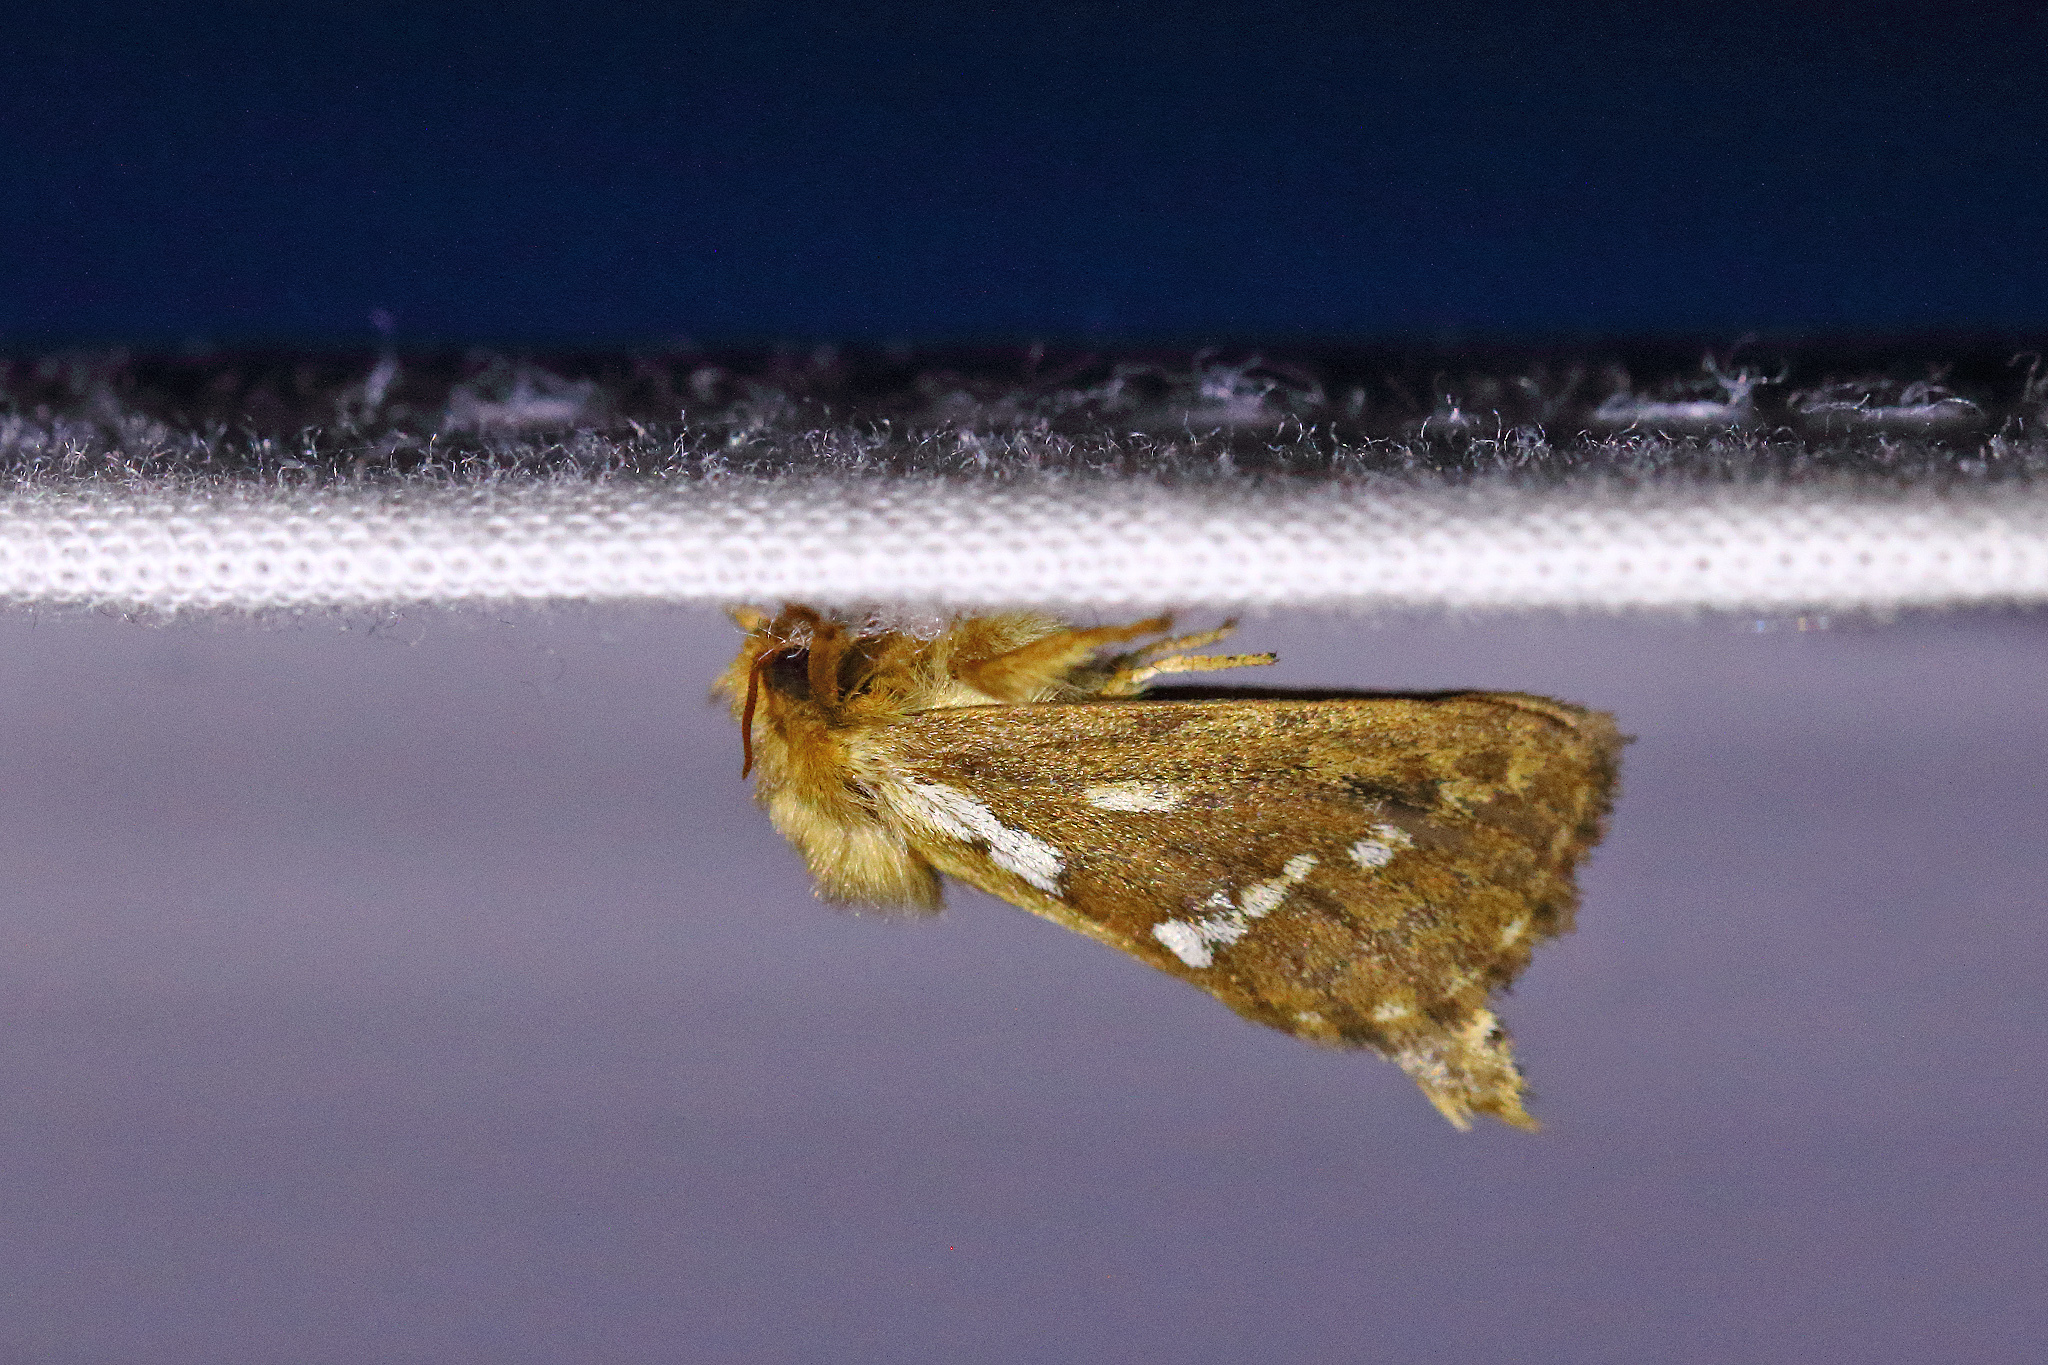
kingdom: Animalia
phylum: Arthropoda
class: Insecta
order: Lepidoptera
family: Hepialidae
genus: Korscheltellus
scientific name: Korscheltellus lupulina
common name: Common swift
